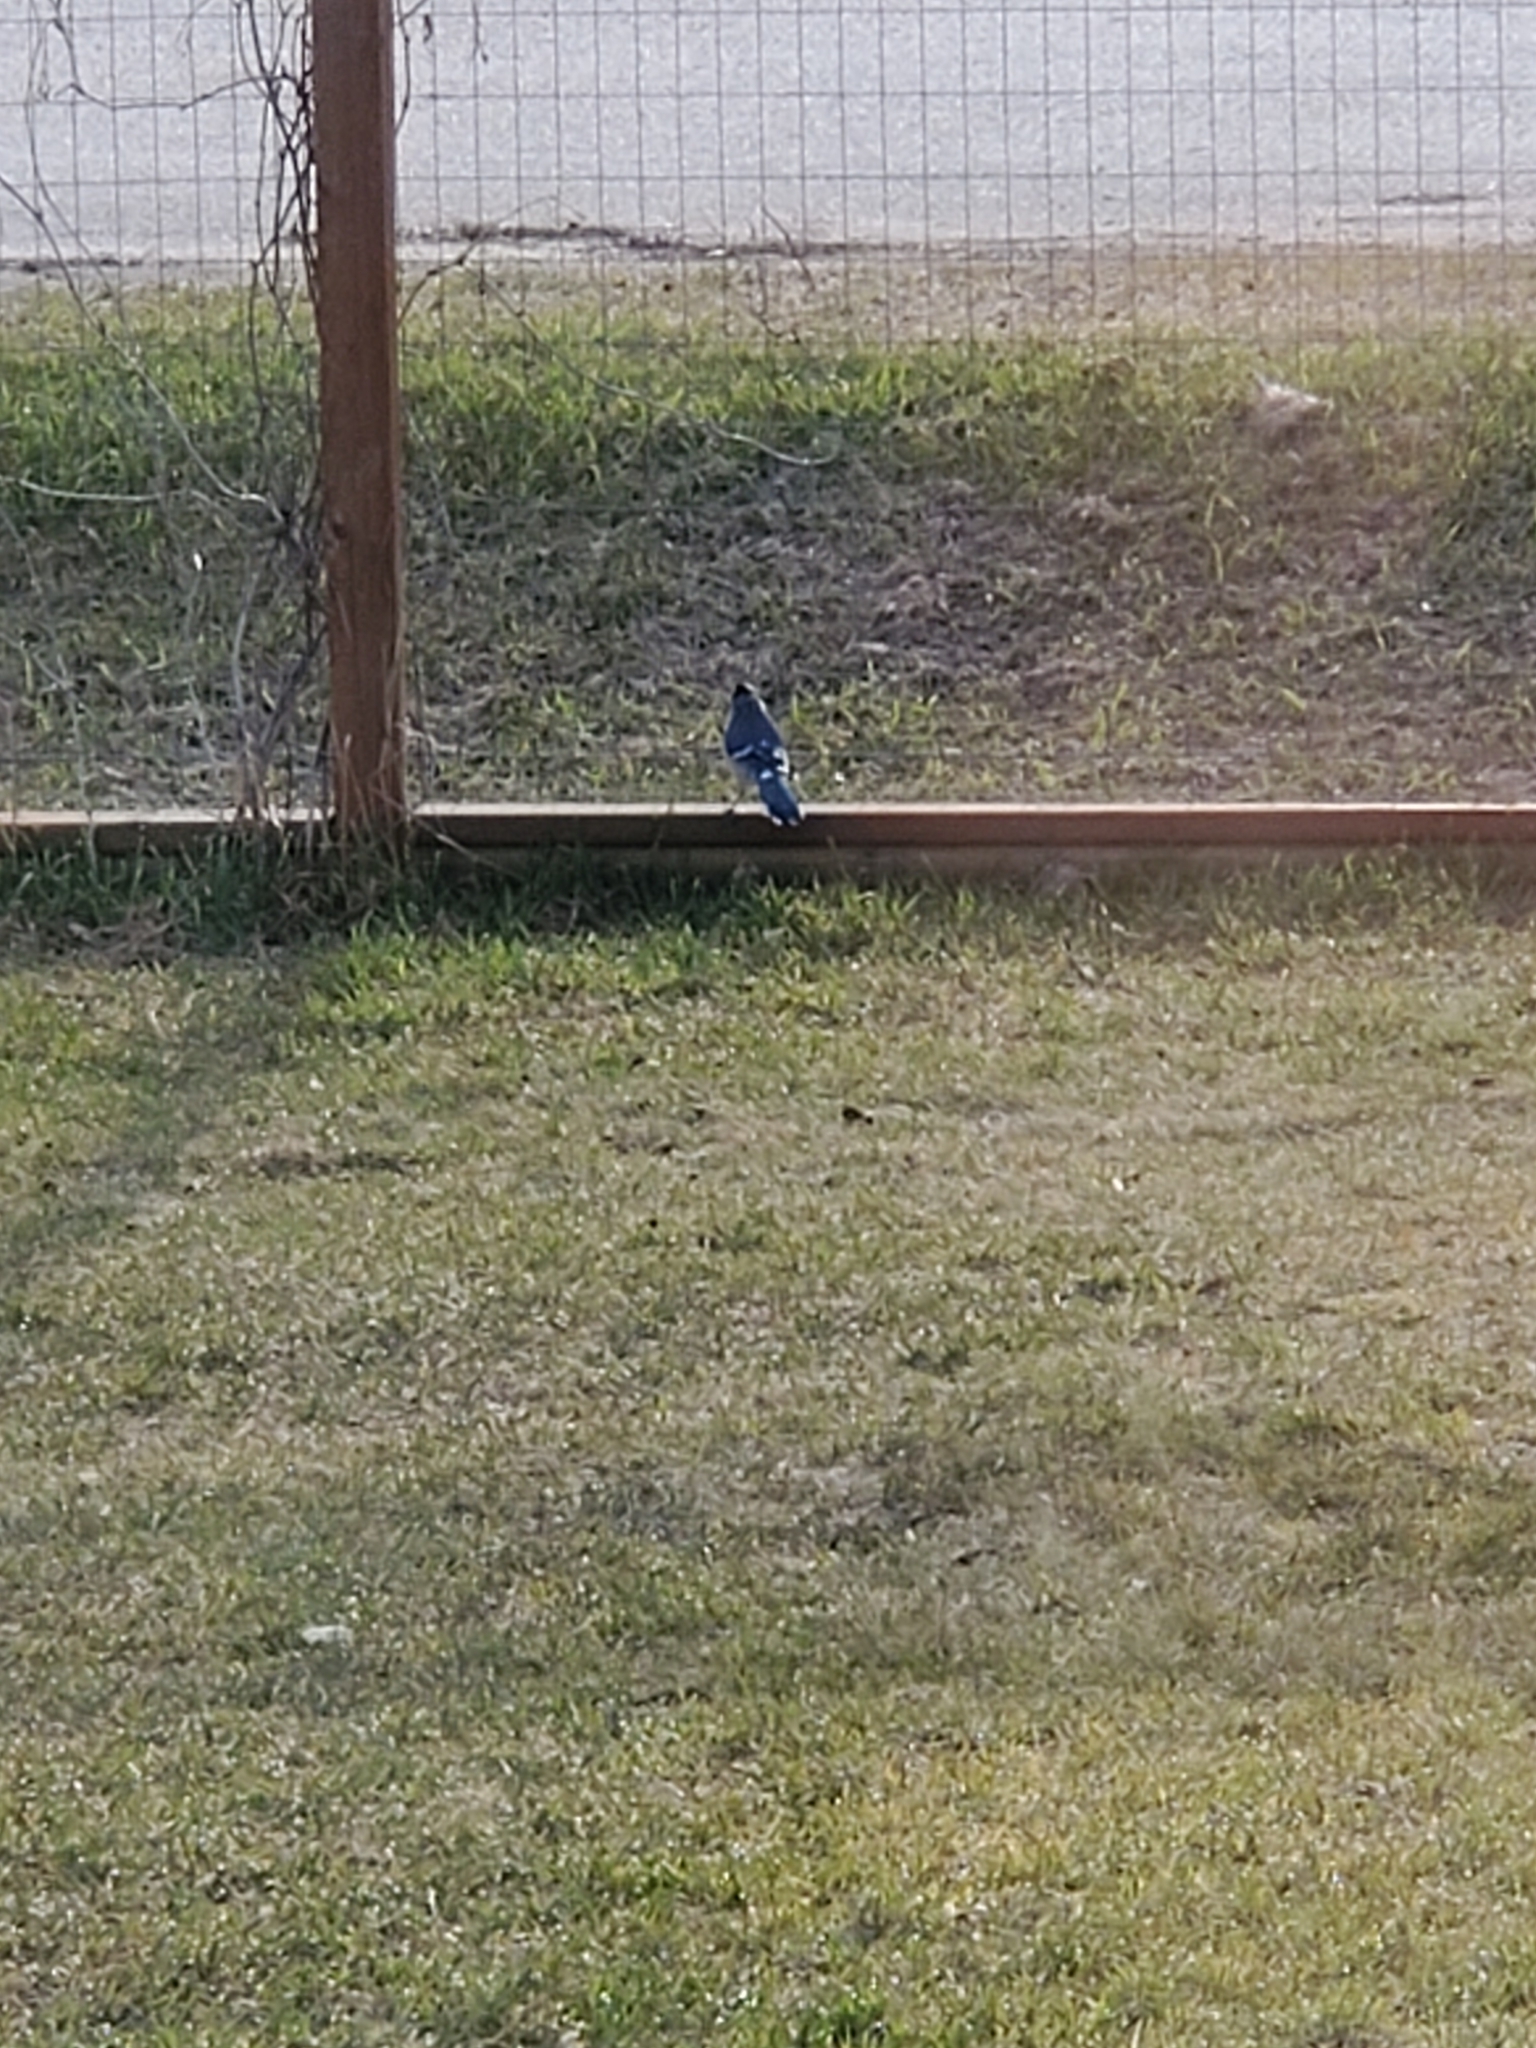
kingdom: Animalia
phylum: Chordata
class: Aves
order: Passeriformes
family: Corvidae
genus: Cyanocitta
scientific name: Cyanocitta cristata
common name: Blue jay
